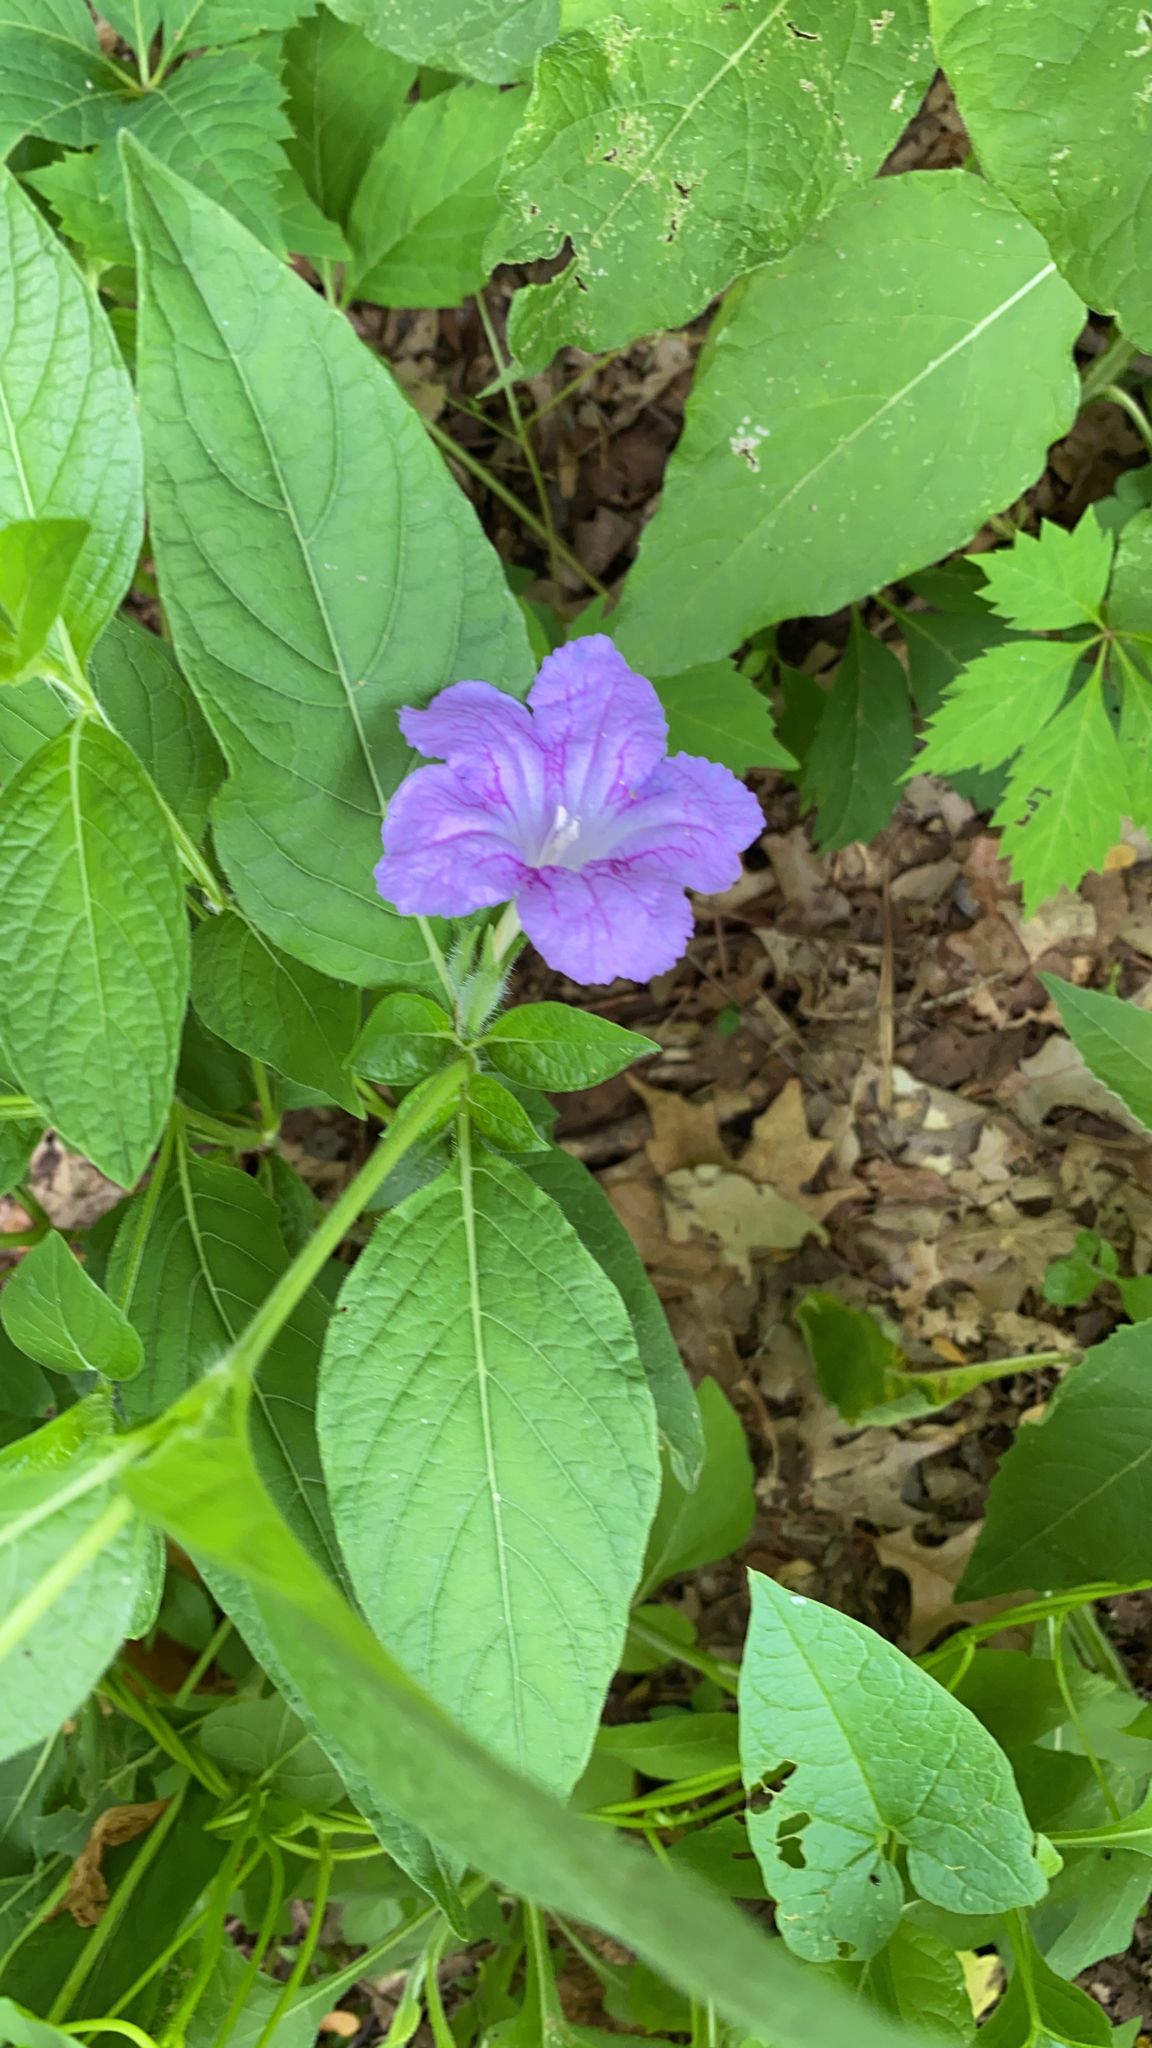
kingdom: Plantae
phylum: Tracheophyta
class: Magnoliopsida
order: Lamiales
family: Acanthaceae
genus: Ruellia
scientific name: Ruellia strepens
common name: Limestone wild petunia
